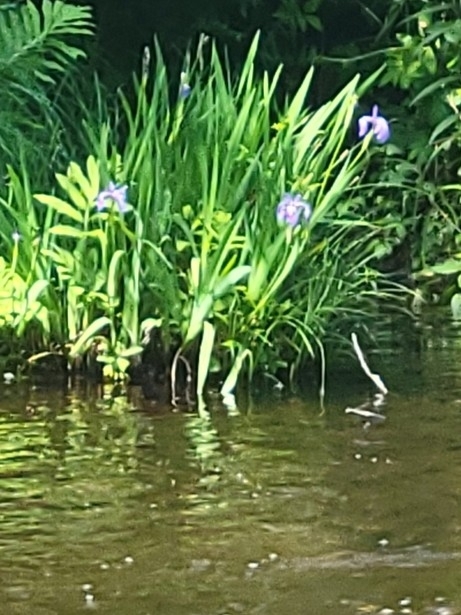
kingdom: Plantae
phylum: Tracheophyta
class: Liliopsida
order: Asparagales
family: Iridaceae
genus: Iris
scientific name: Iris versicolor
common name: Purple iris
